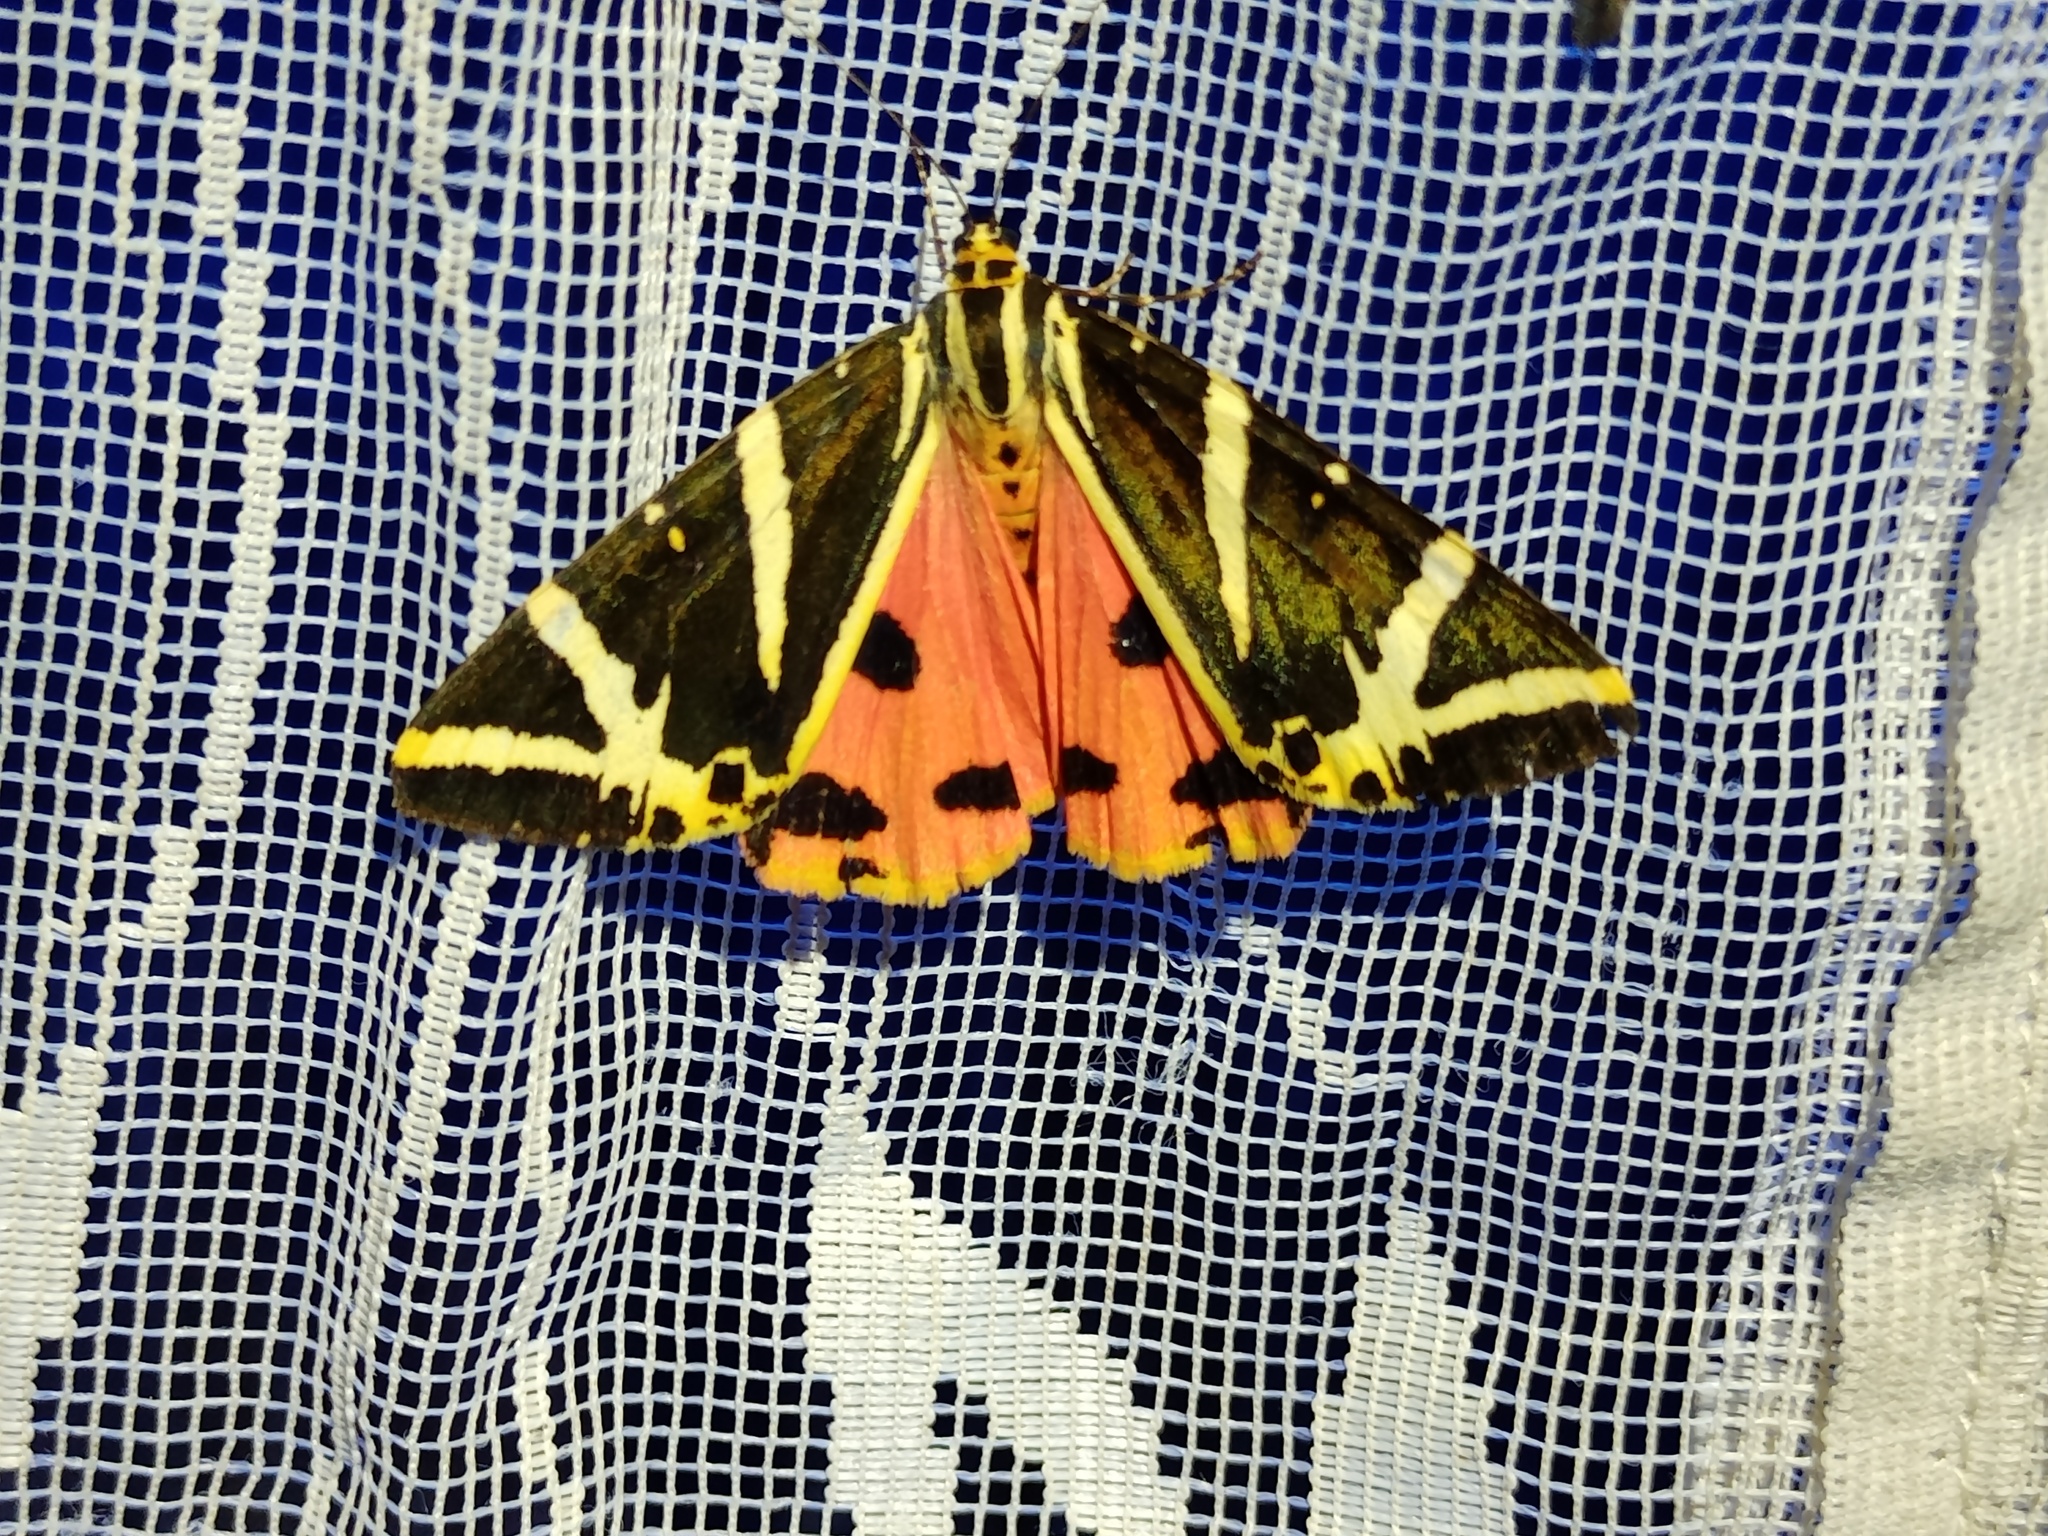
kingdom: Animalia
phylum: Arthropoda
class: Insecta
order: Lepidoptera
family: Erebidae
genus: Euplagia
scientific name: Euplagia quadripunctaria
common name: Jersey tiger
